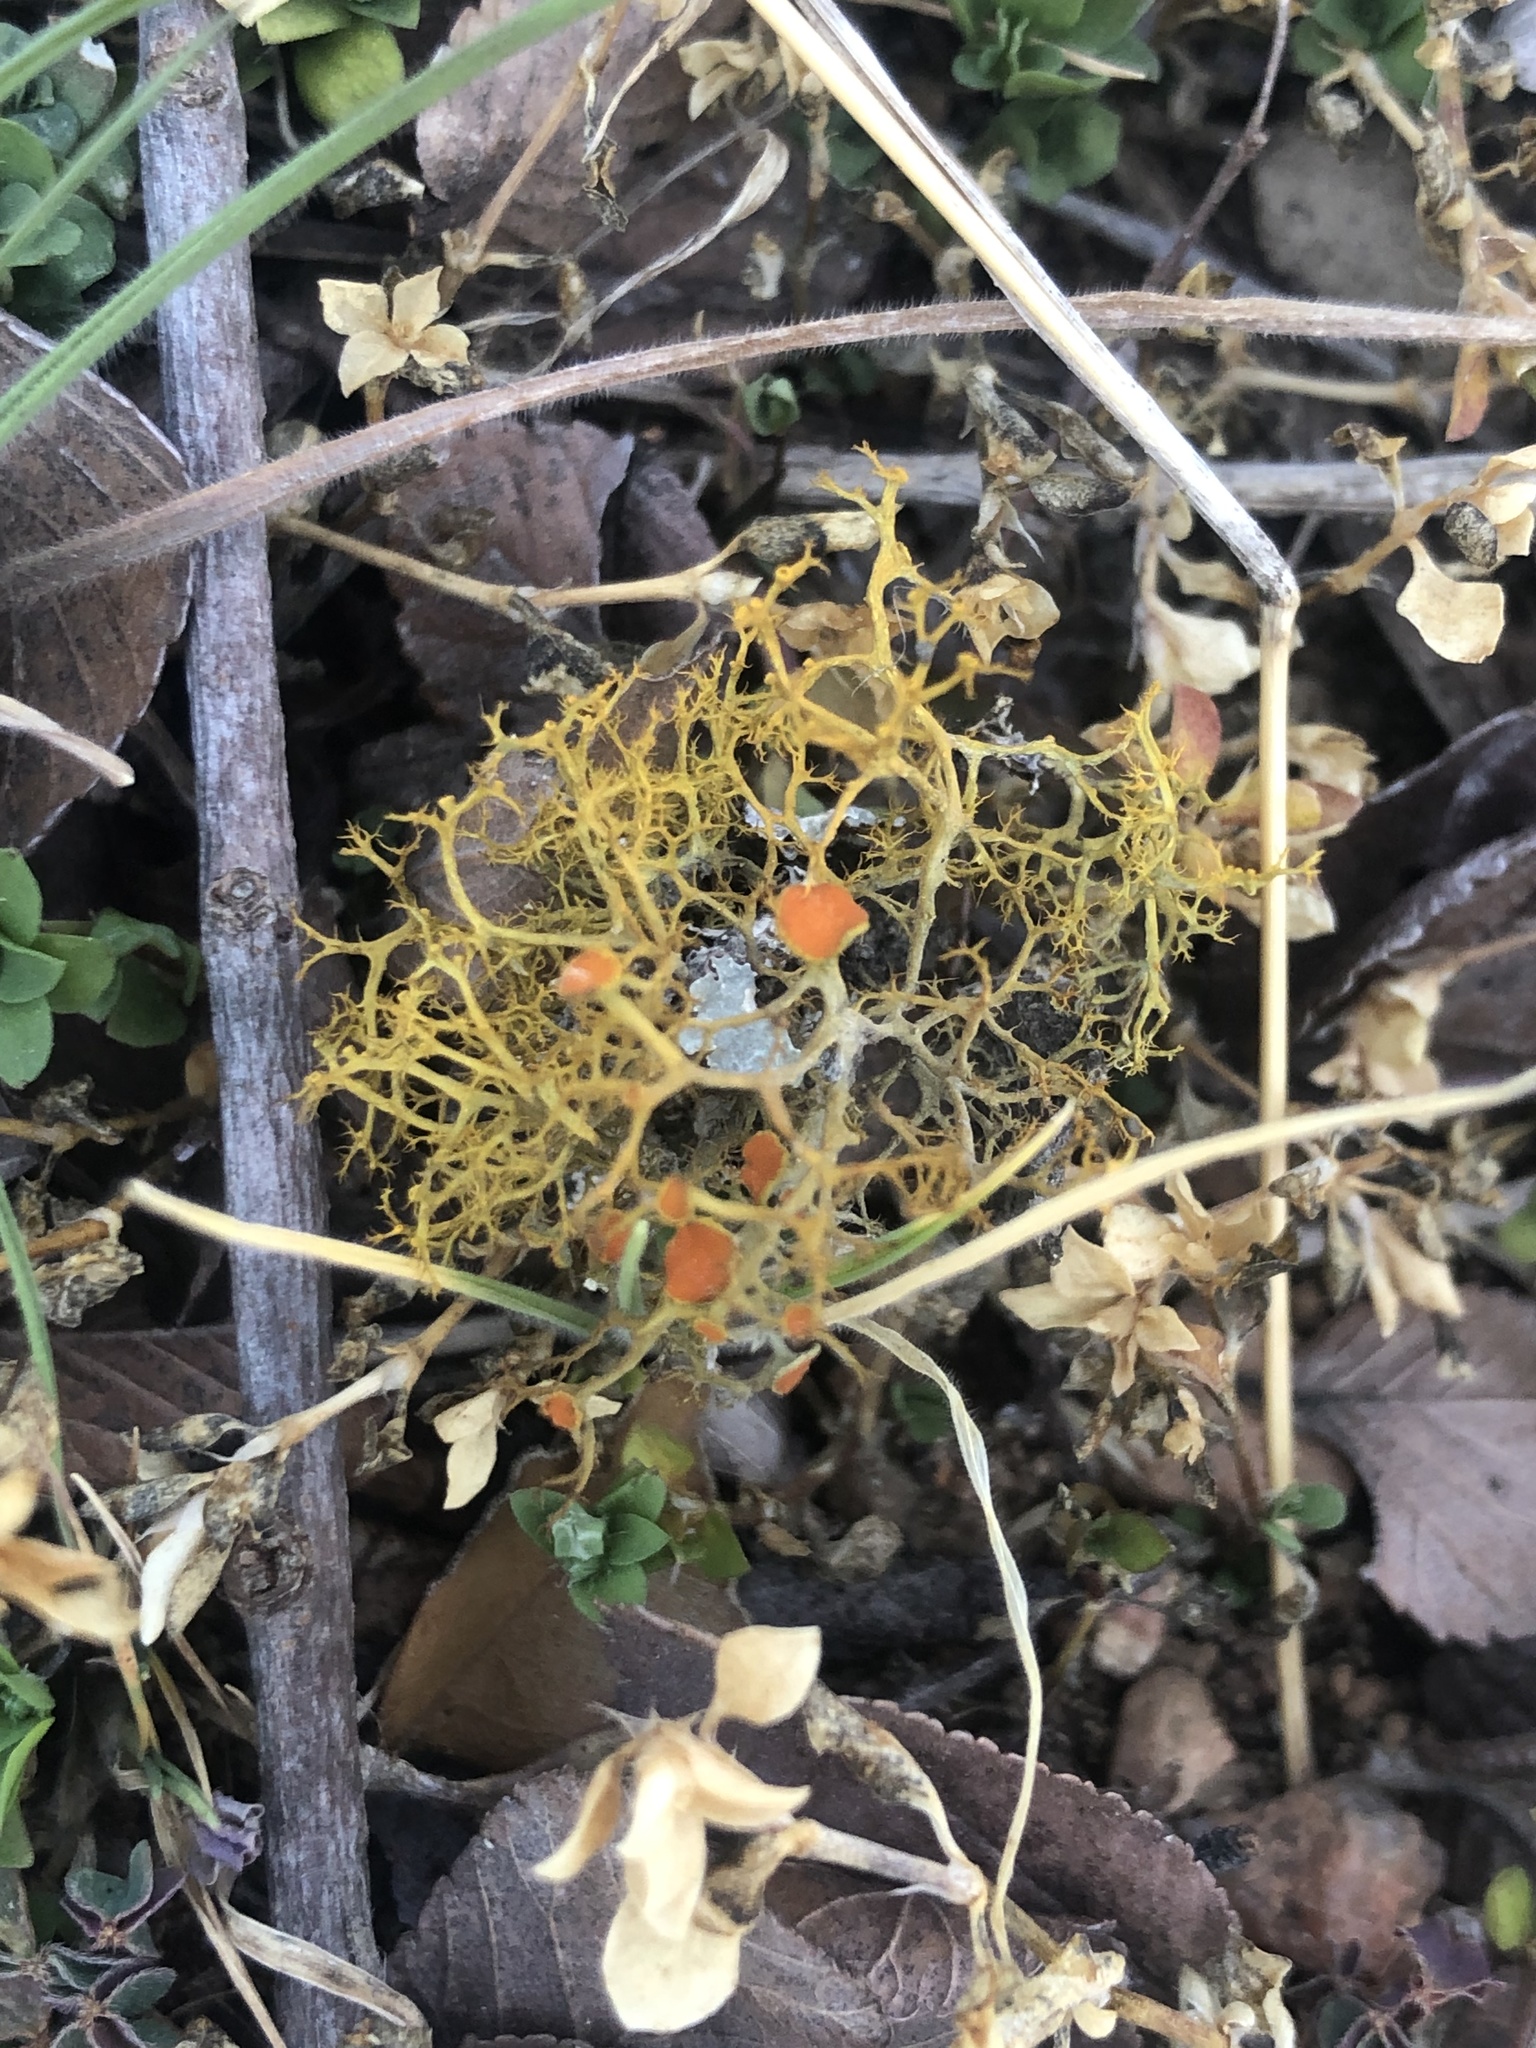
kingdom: Fungi
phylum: Ascomycota
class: Lecanoromycetes
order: Teloschistales
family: Teloschistaceae
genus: Teloschistes
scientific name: Teloschistes exilis
